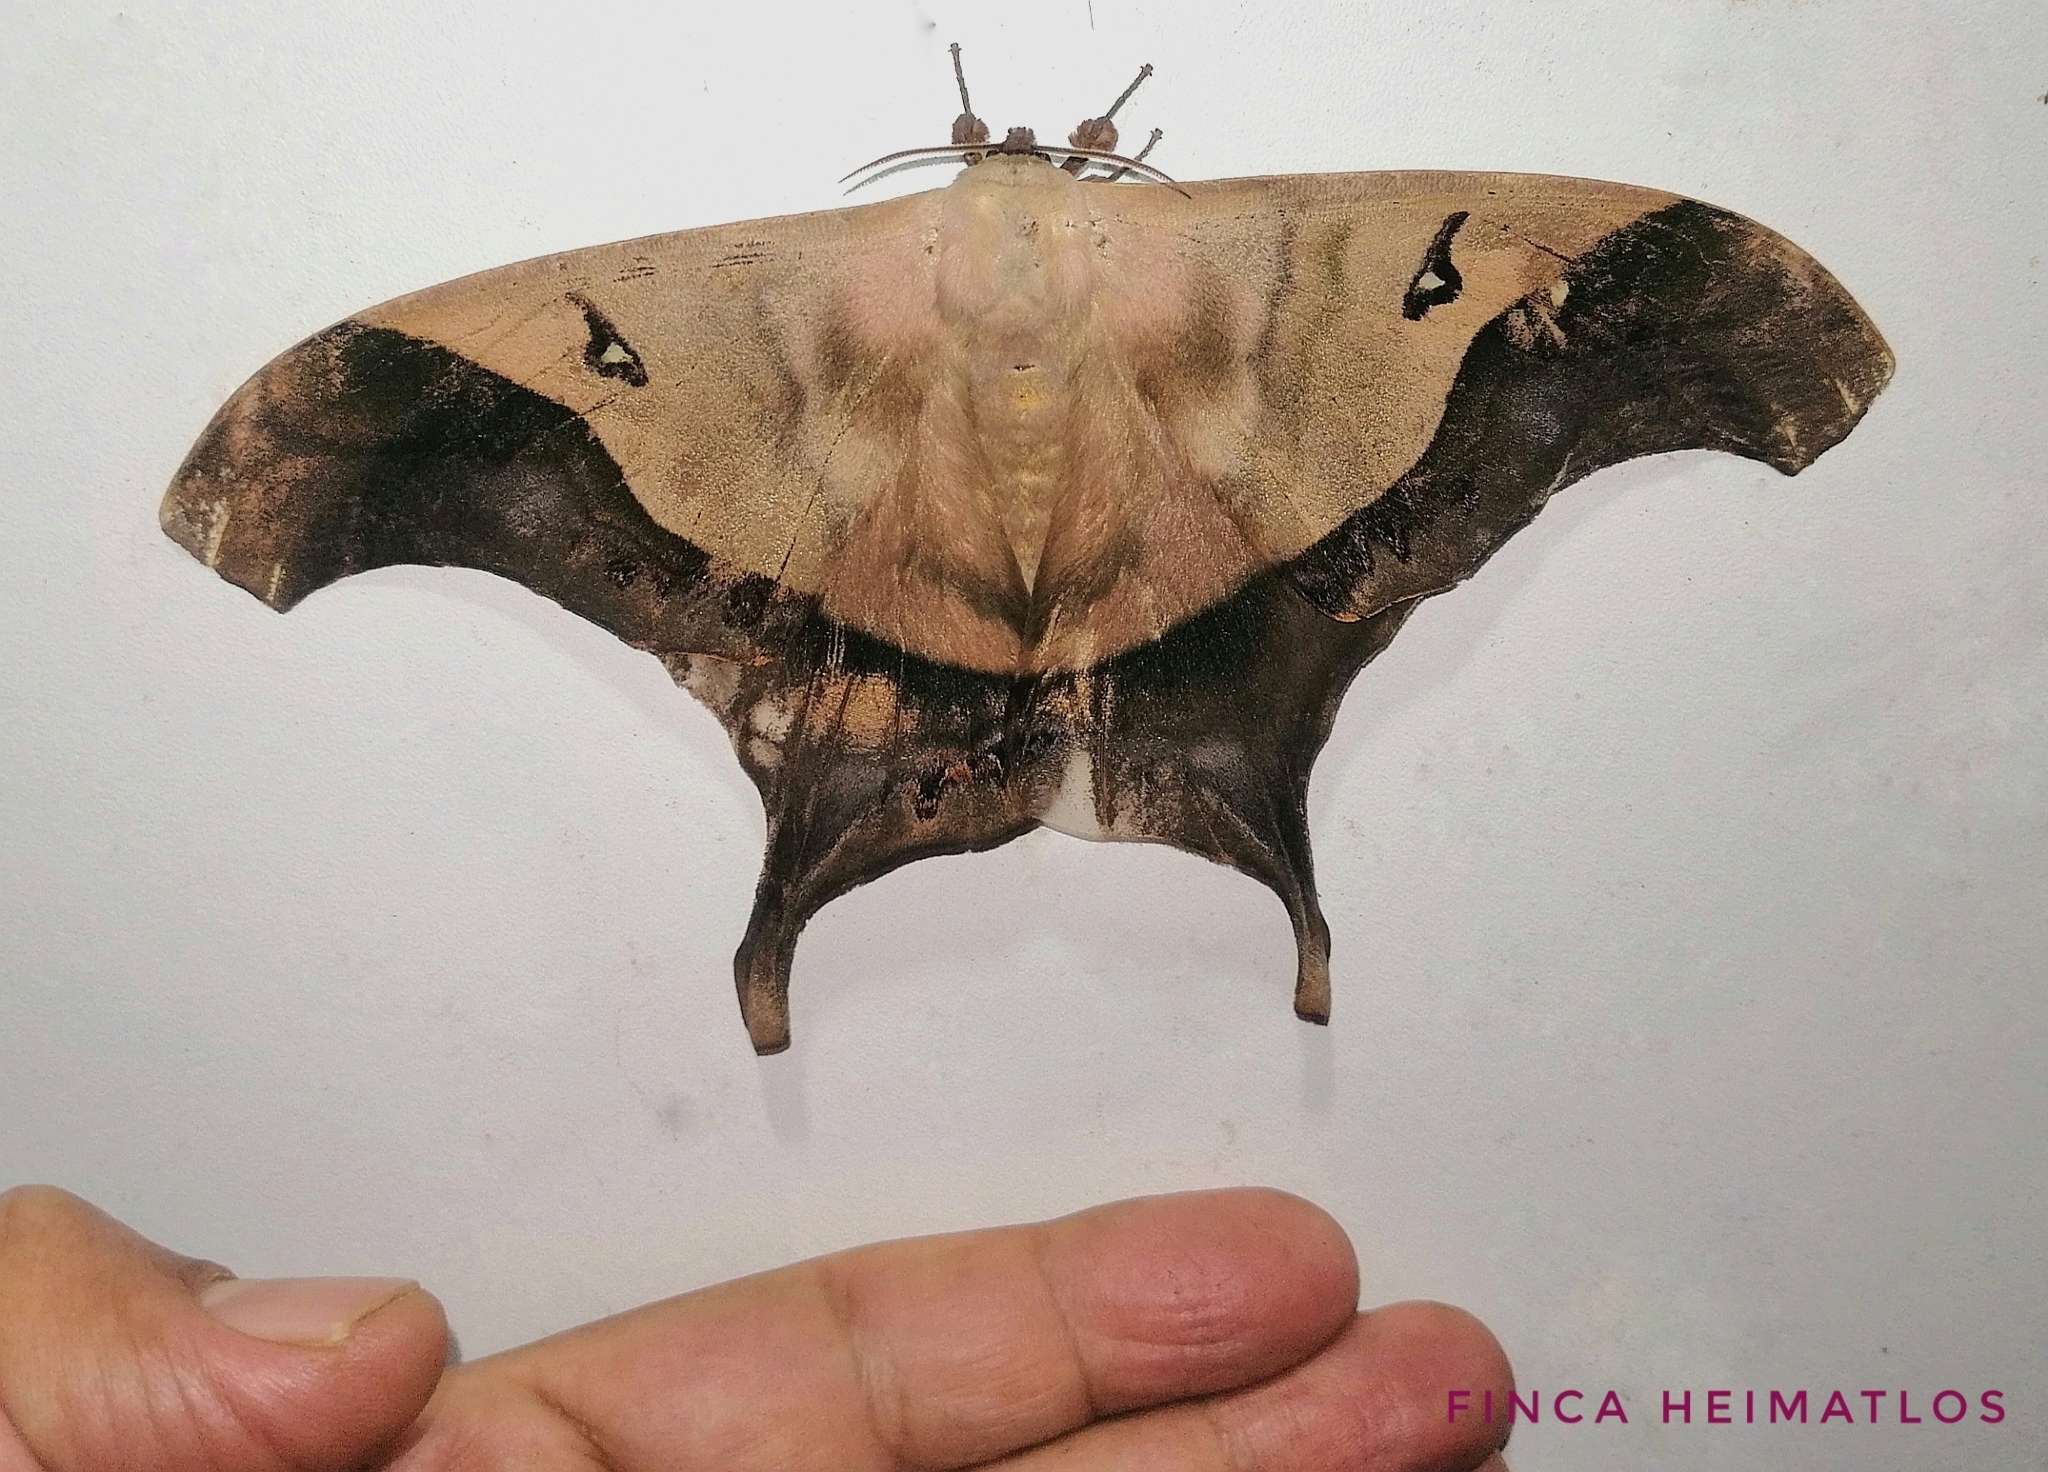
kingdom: Animalia
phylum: Arthropoda
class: Insecta
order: Lepidoptera
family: Saturniidae
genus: Titaea
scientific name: Titaea timur
